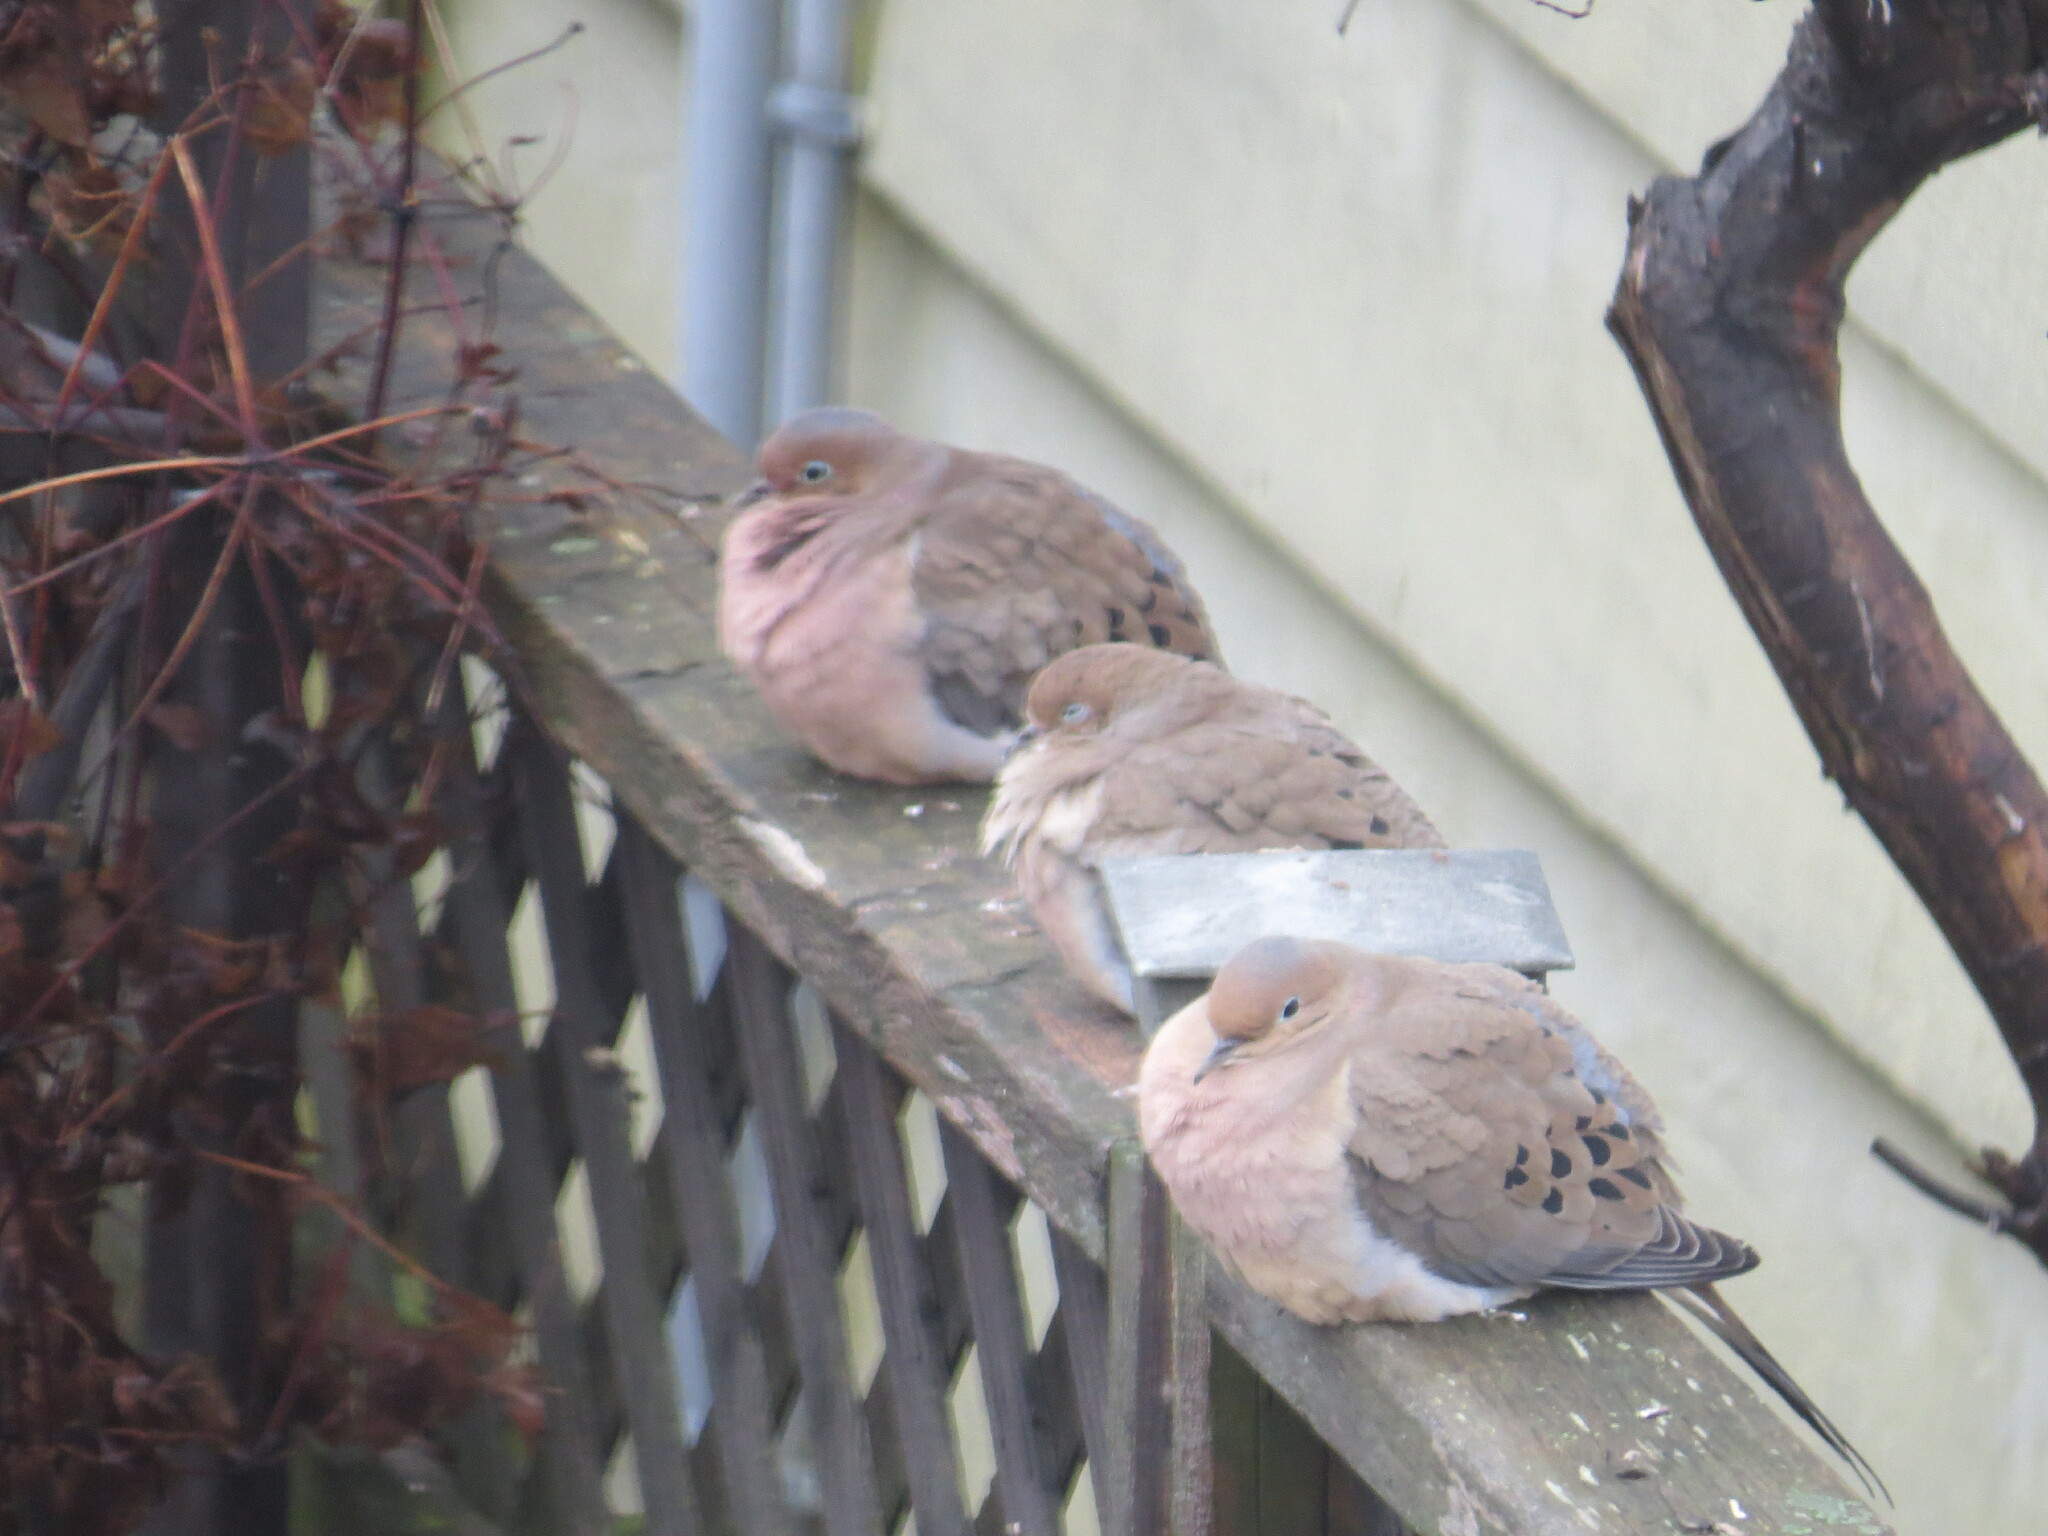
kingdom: Animalia
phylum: Chordata
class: Aves
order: Columbiformes
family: Columbidae
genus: Zenaida
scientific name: Zenaida macroura
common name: Mourning dove
